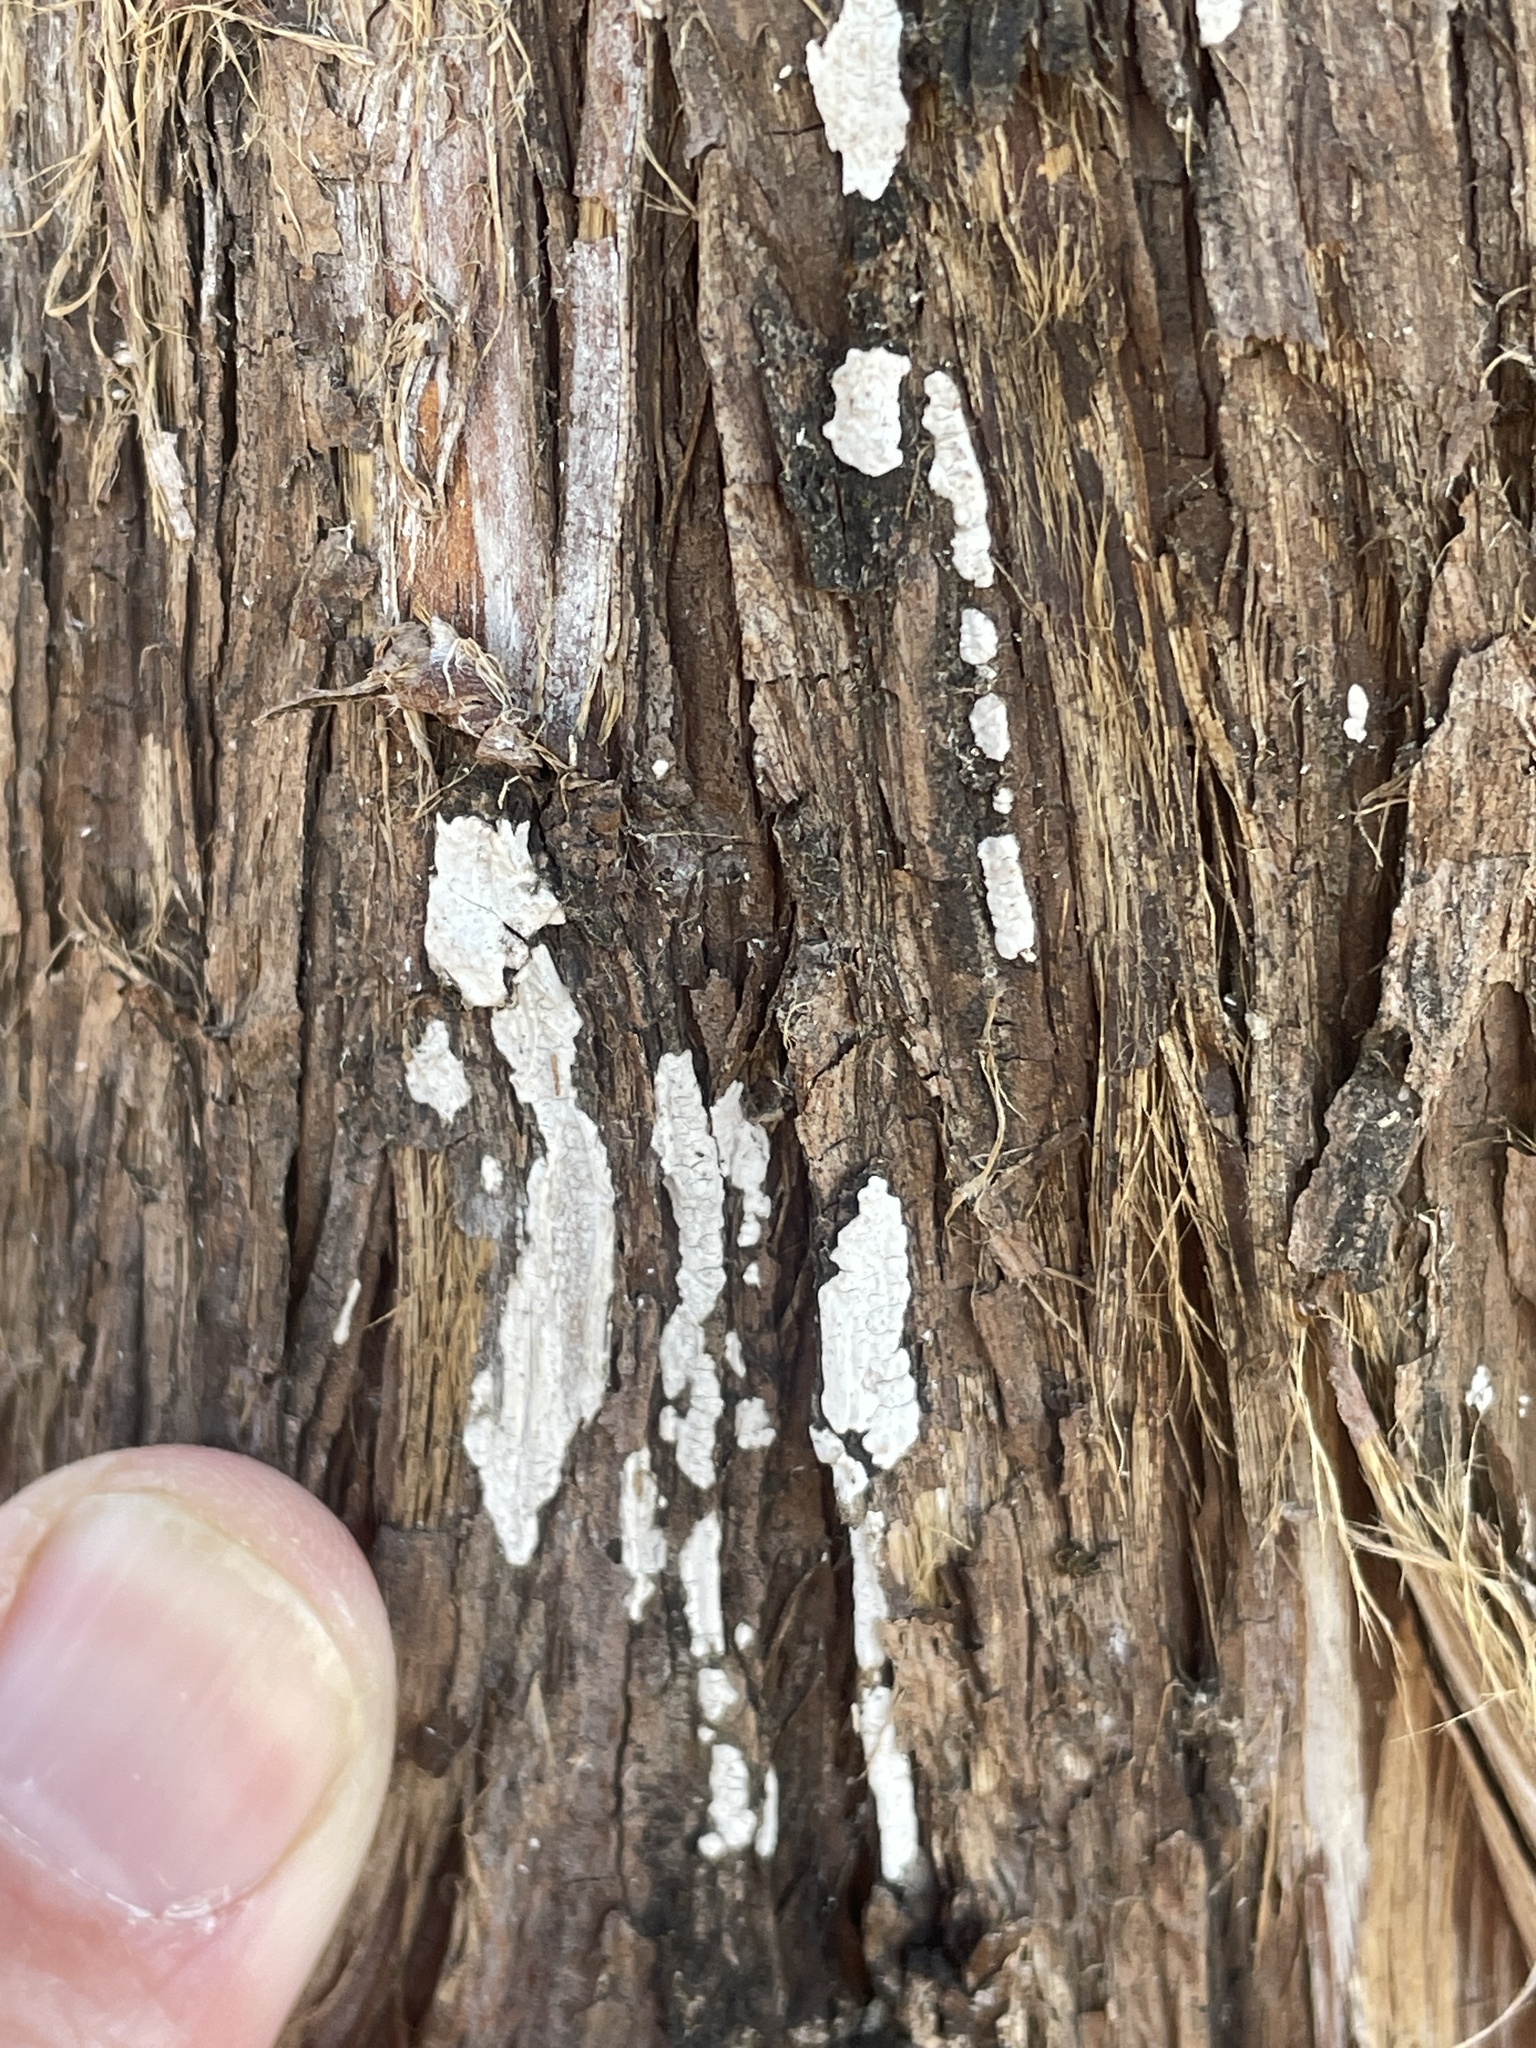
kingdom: Fungi
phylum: Basidiomycota
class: Agaricomycetes
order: Agaricales
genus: Dendrothele
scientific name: Dendrothele nivosa
